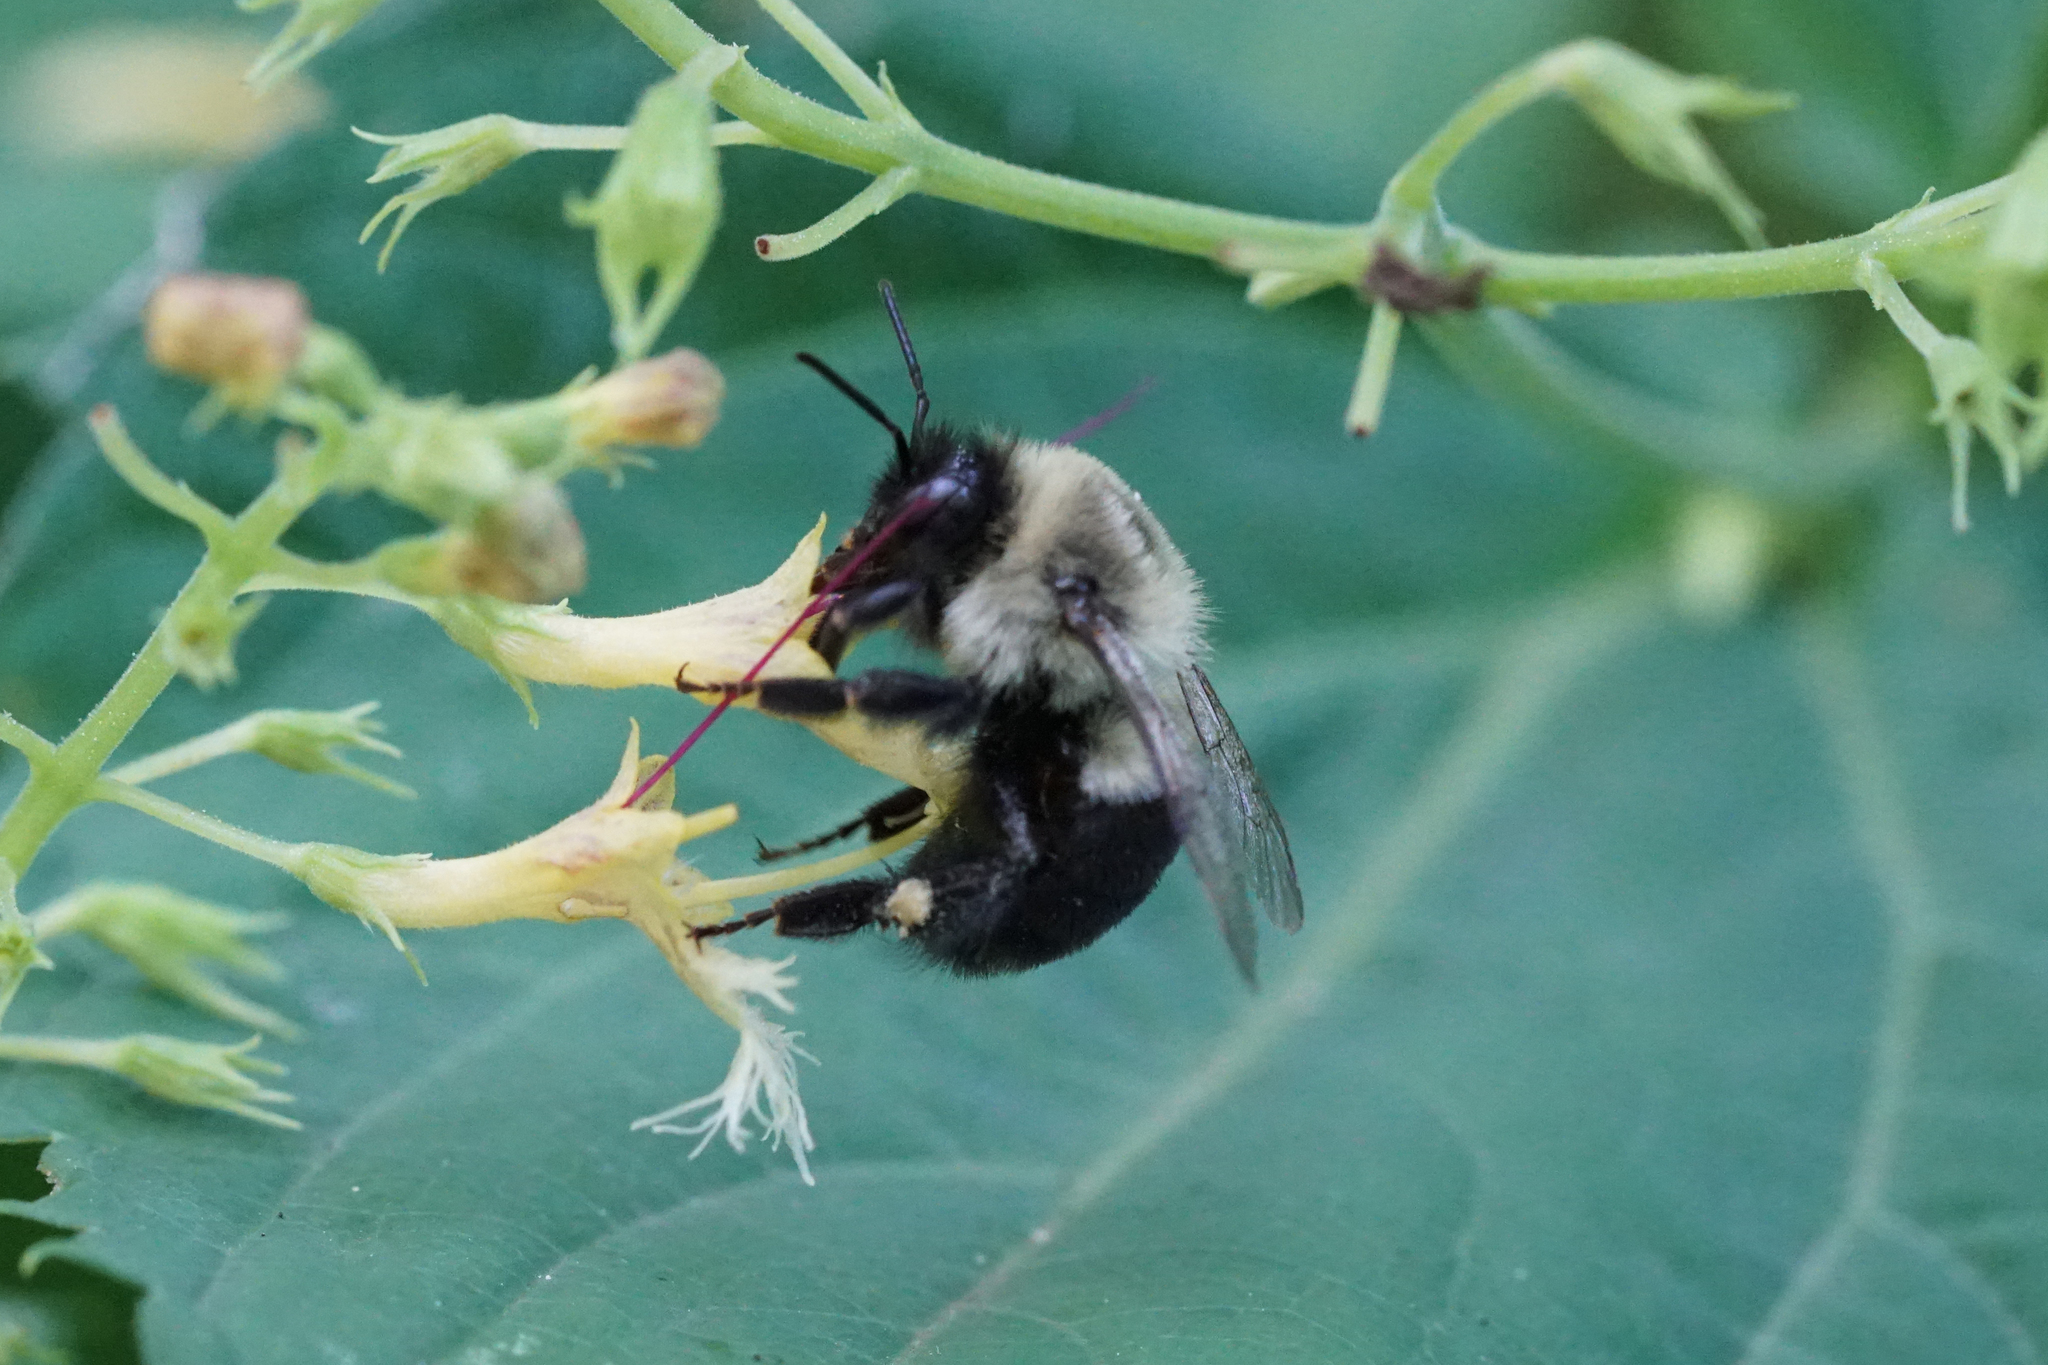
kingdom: Animalia
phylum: Arthropoda
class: Insecta
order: Hymenoptera
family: Apidae
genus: Bombus
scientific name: Bombus impatiens
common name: Common eastern bumble bee
